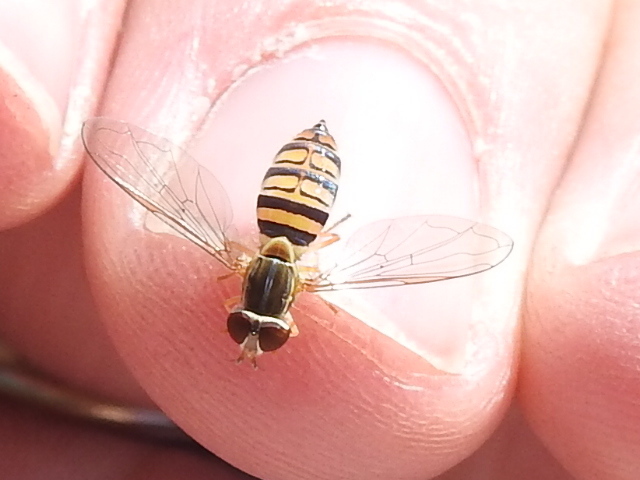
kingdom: Animalia
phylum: Arthropoda
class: Insecta
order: Diptera
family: Syrphidae
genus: Toxomerus
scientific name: Toxomerus politus
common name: Maize calligrapher
